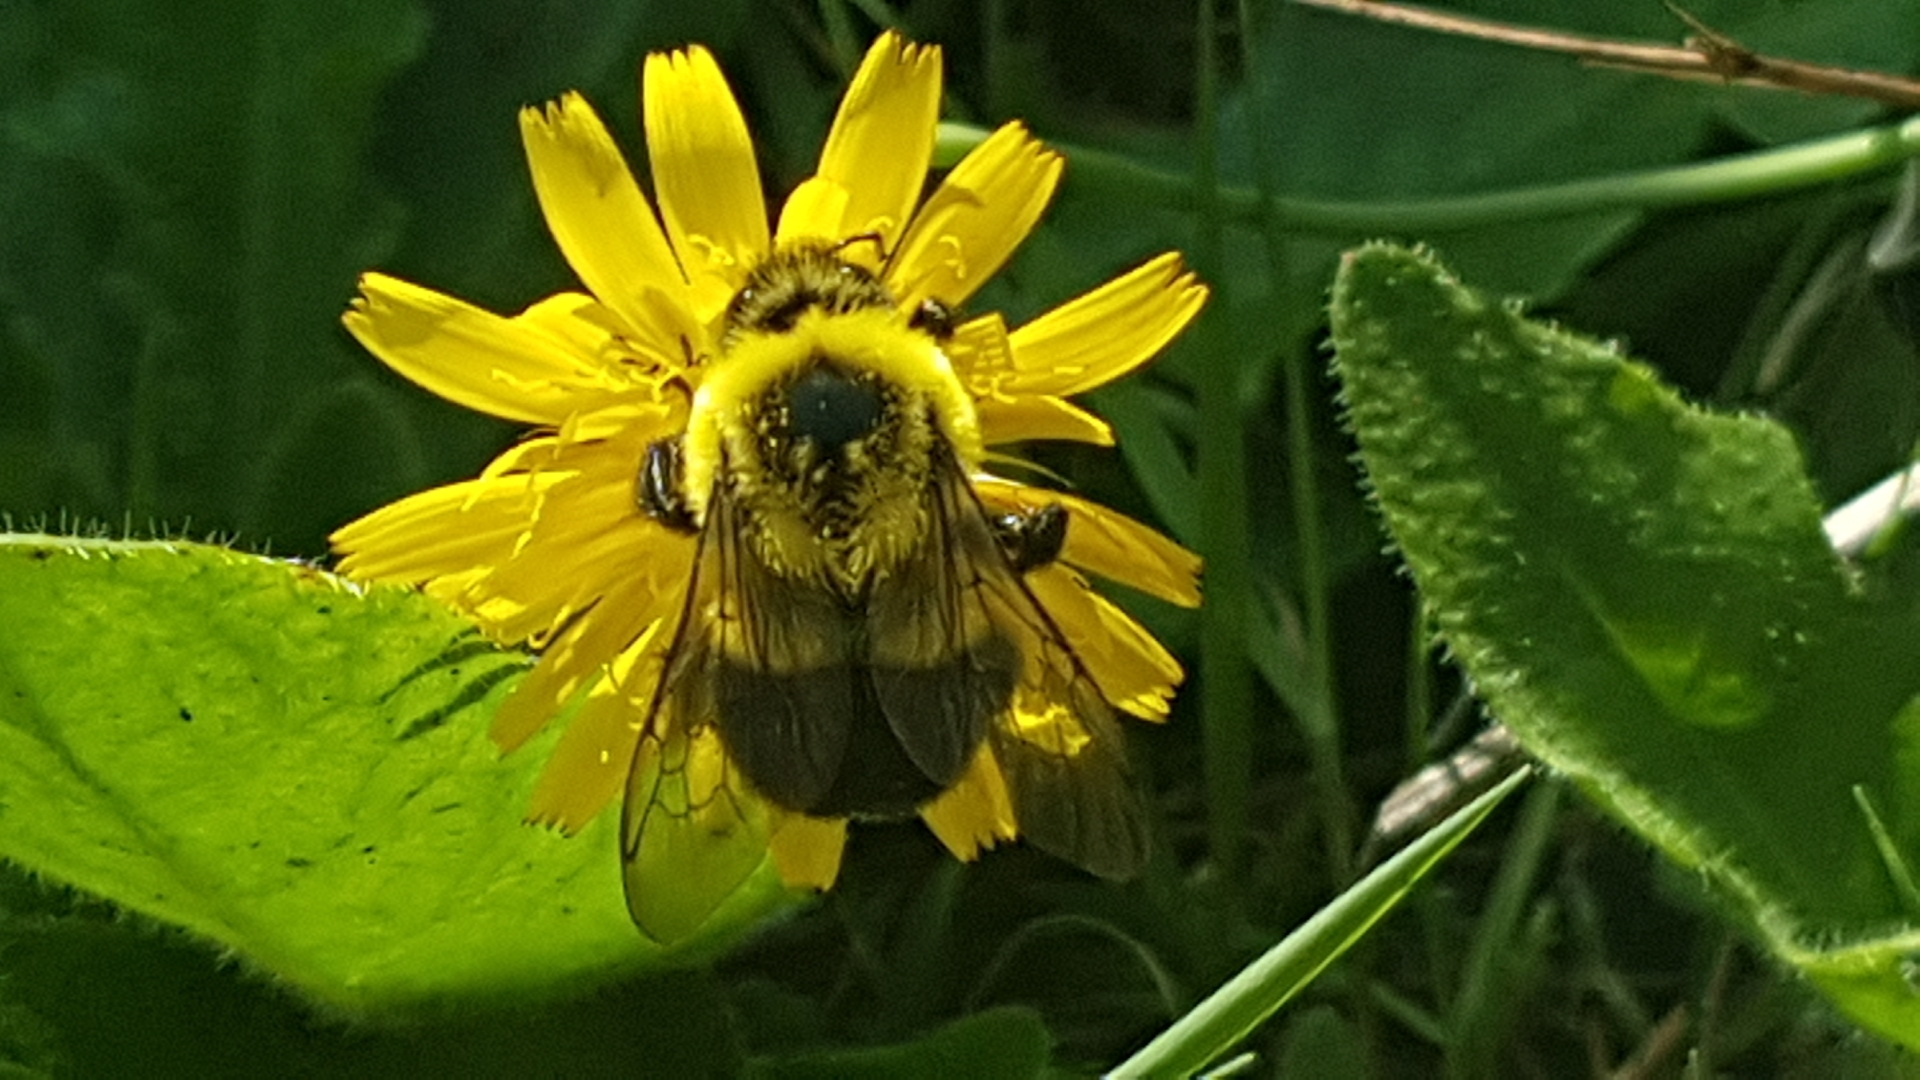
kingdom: Animalia
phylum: Arthropoda
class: Insecta
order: Hymenoptera
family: Apidae
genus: Bombus
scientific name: Bombus impatiens
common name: Common eastern bumble bee
